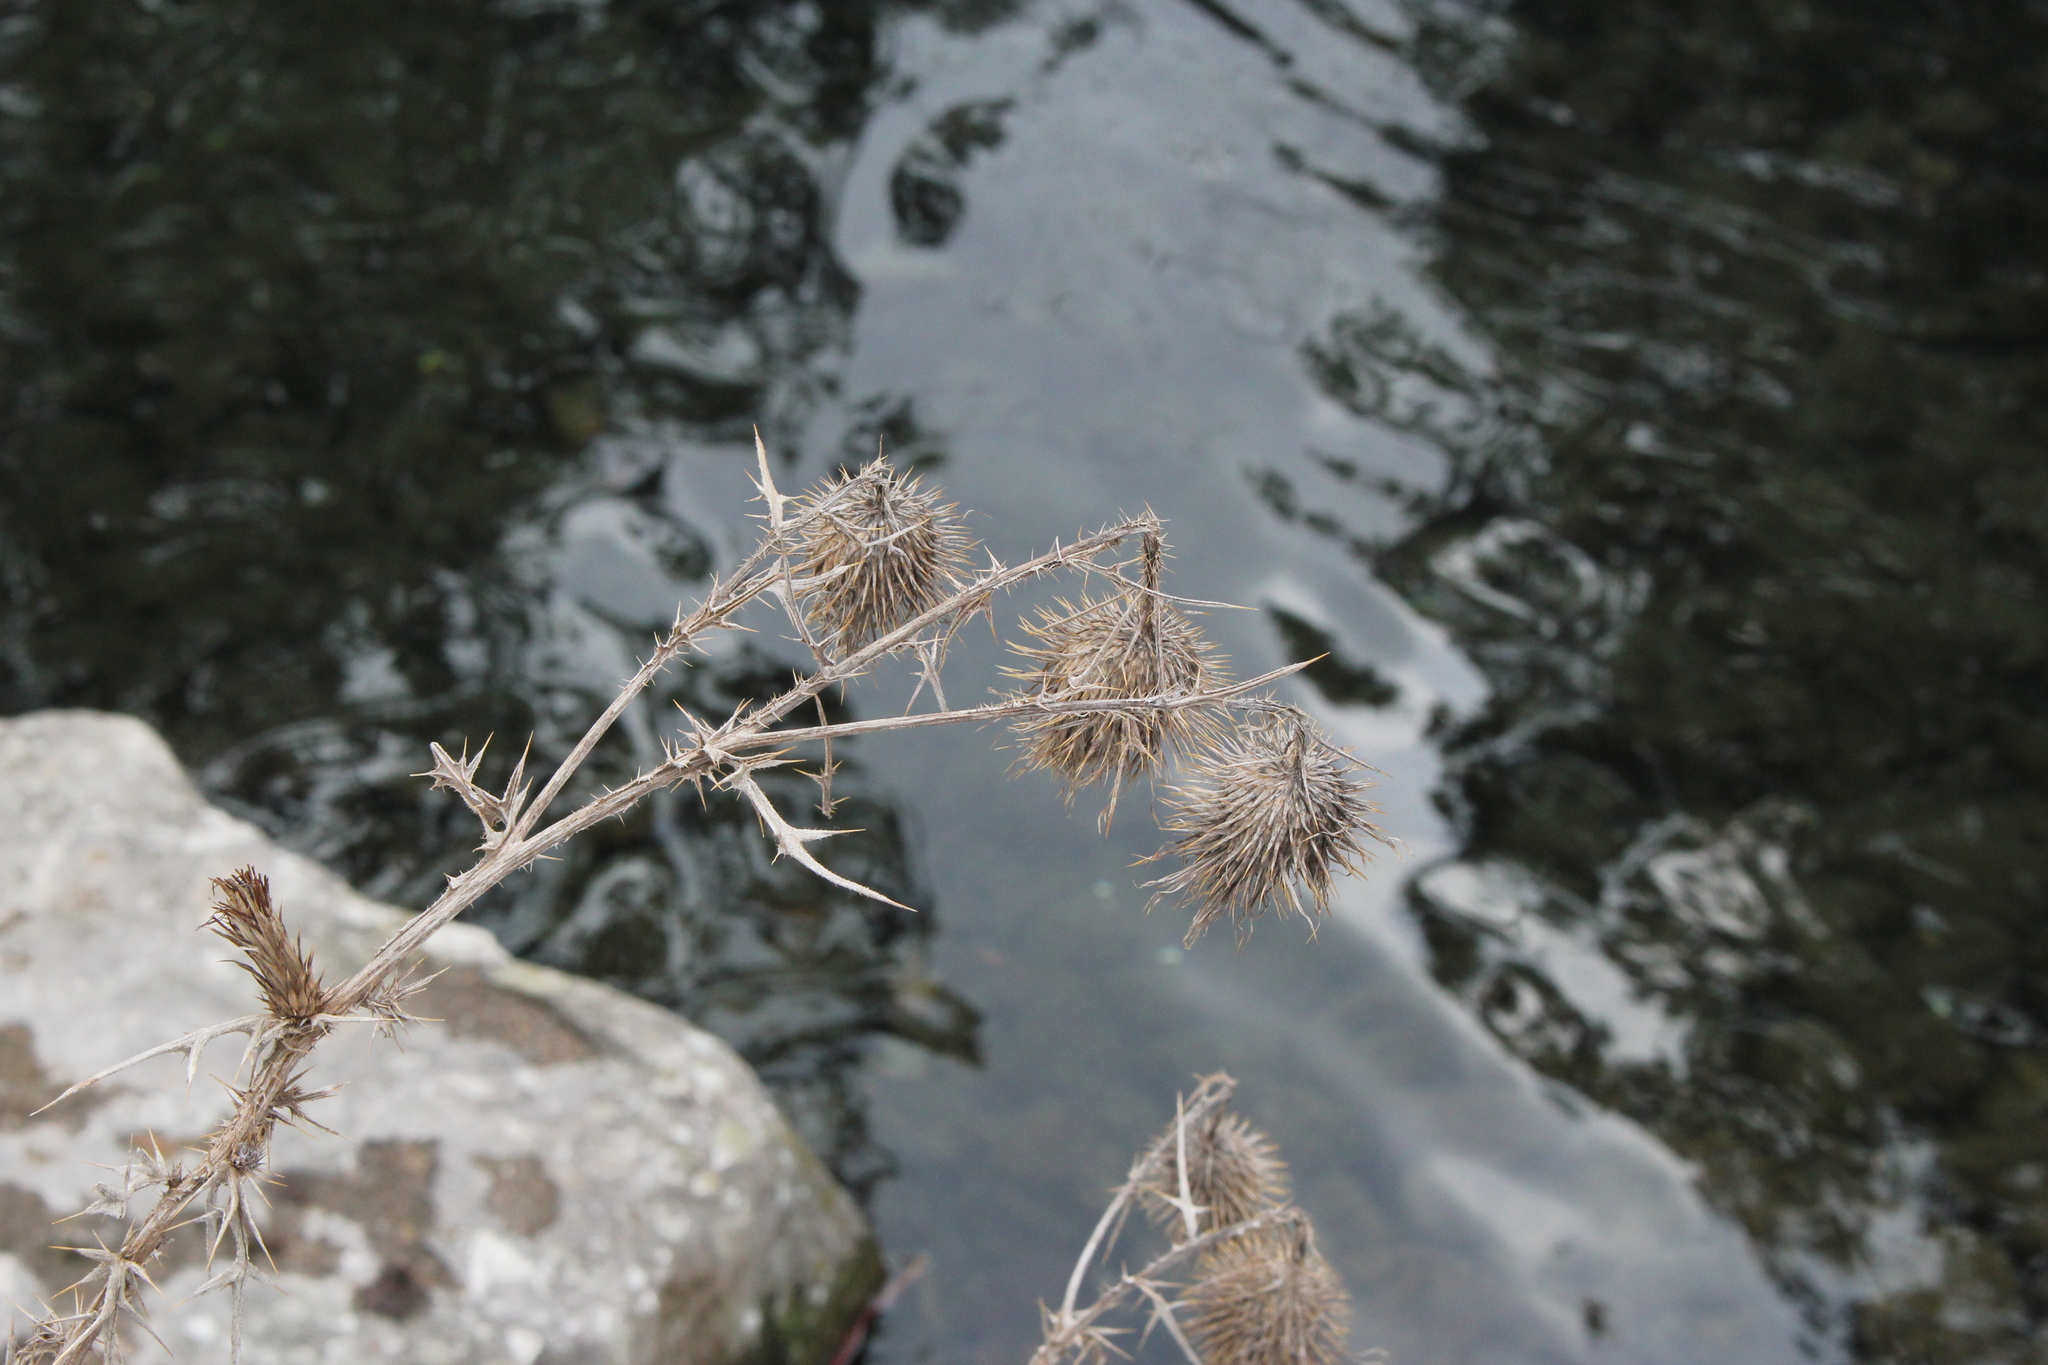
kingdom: Plantae
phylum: Tracheophyta
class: Magnoliopsida
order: Asterales
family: Asteraceae
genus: Cirsium
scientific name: Cirsium vulgare
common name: Bull thistle
